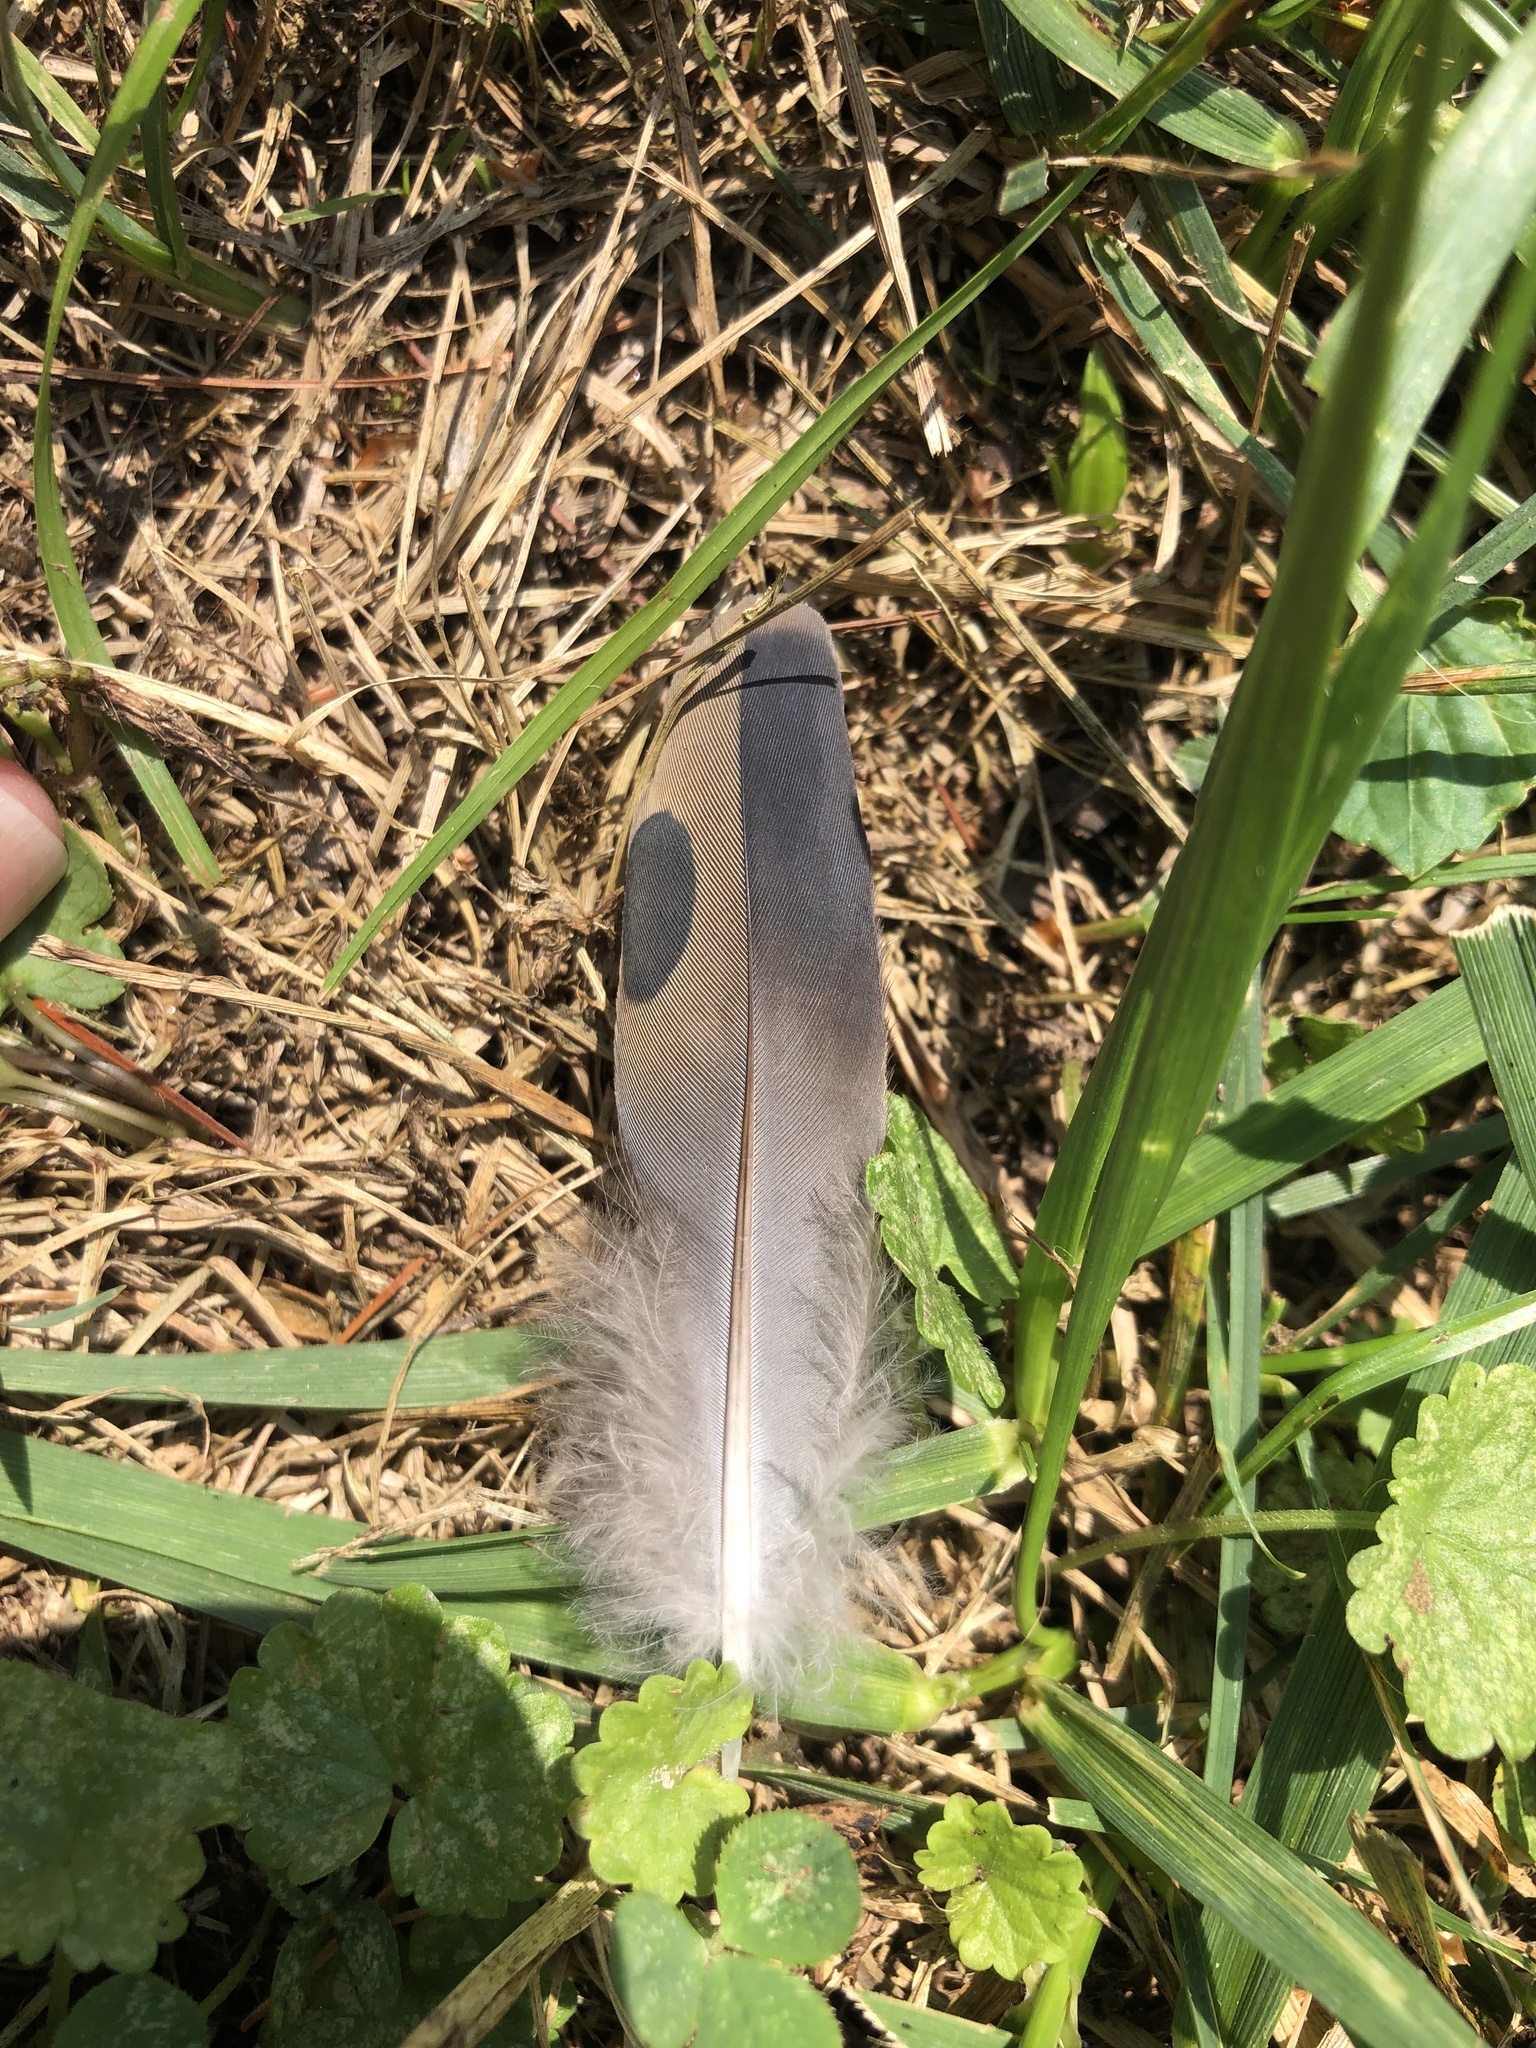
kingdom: Animalia
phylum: Chordata
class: Aves
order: Columbiformes
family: Columbidae
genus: Zenaida
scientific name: Zenaida macroura
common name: Mourning dove
